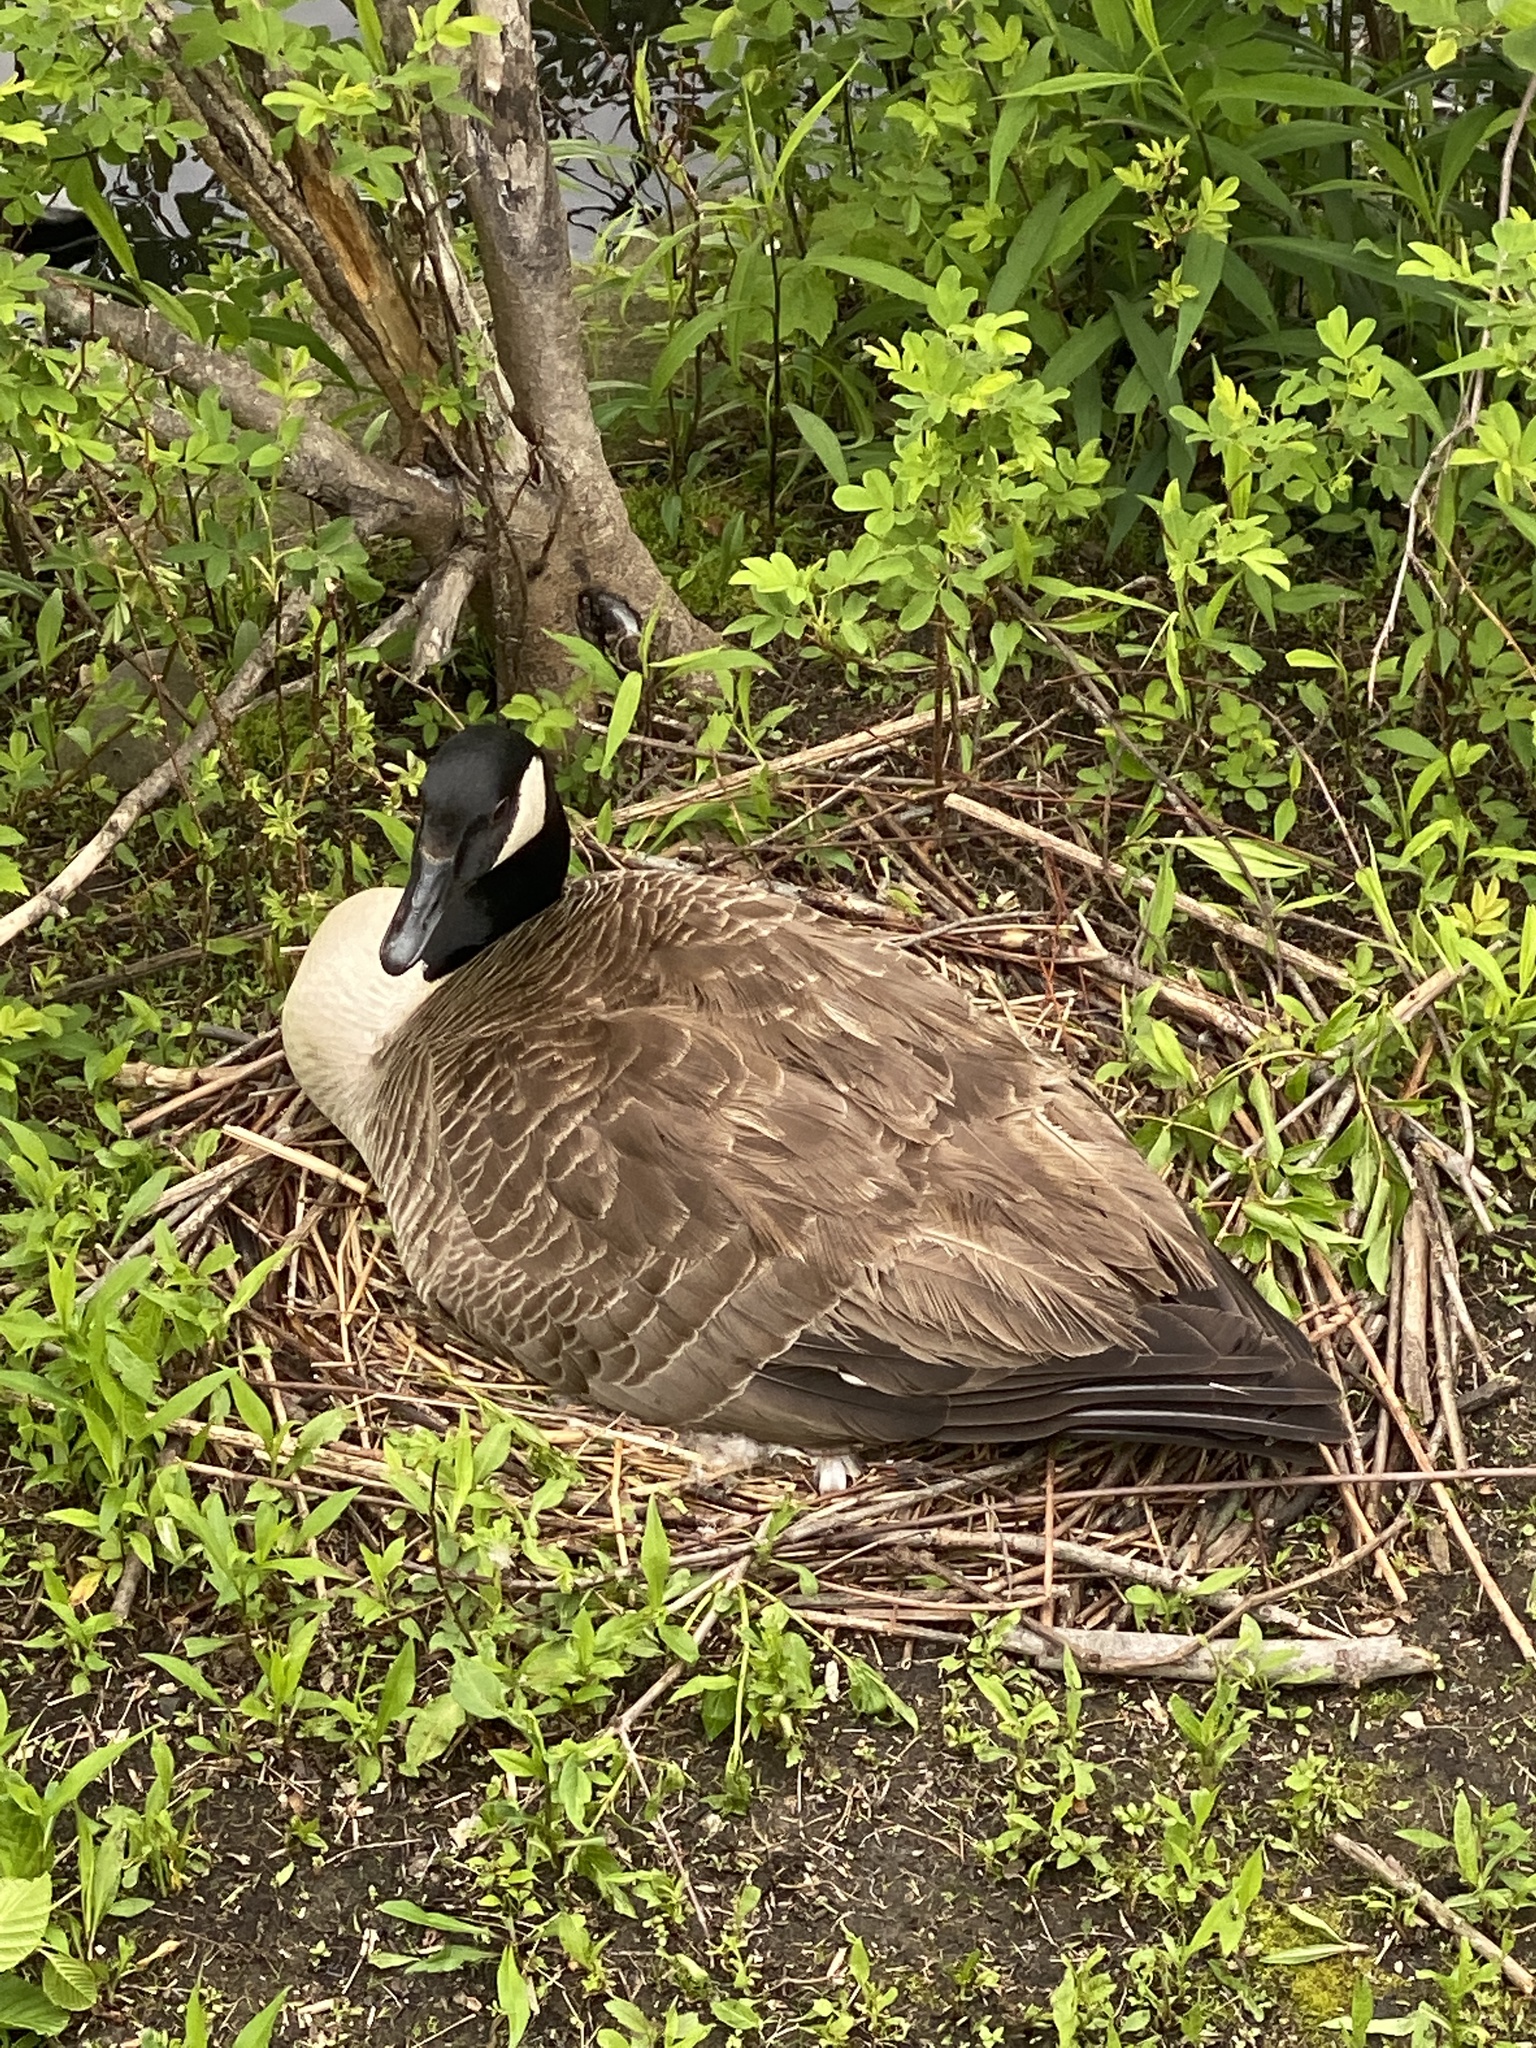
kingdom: Animalia
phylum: Chordata
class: Aves
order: Anseriformes
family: Anatidae
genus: Branta
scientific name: Branta canadensis
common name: Canada goose
